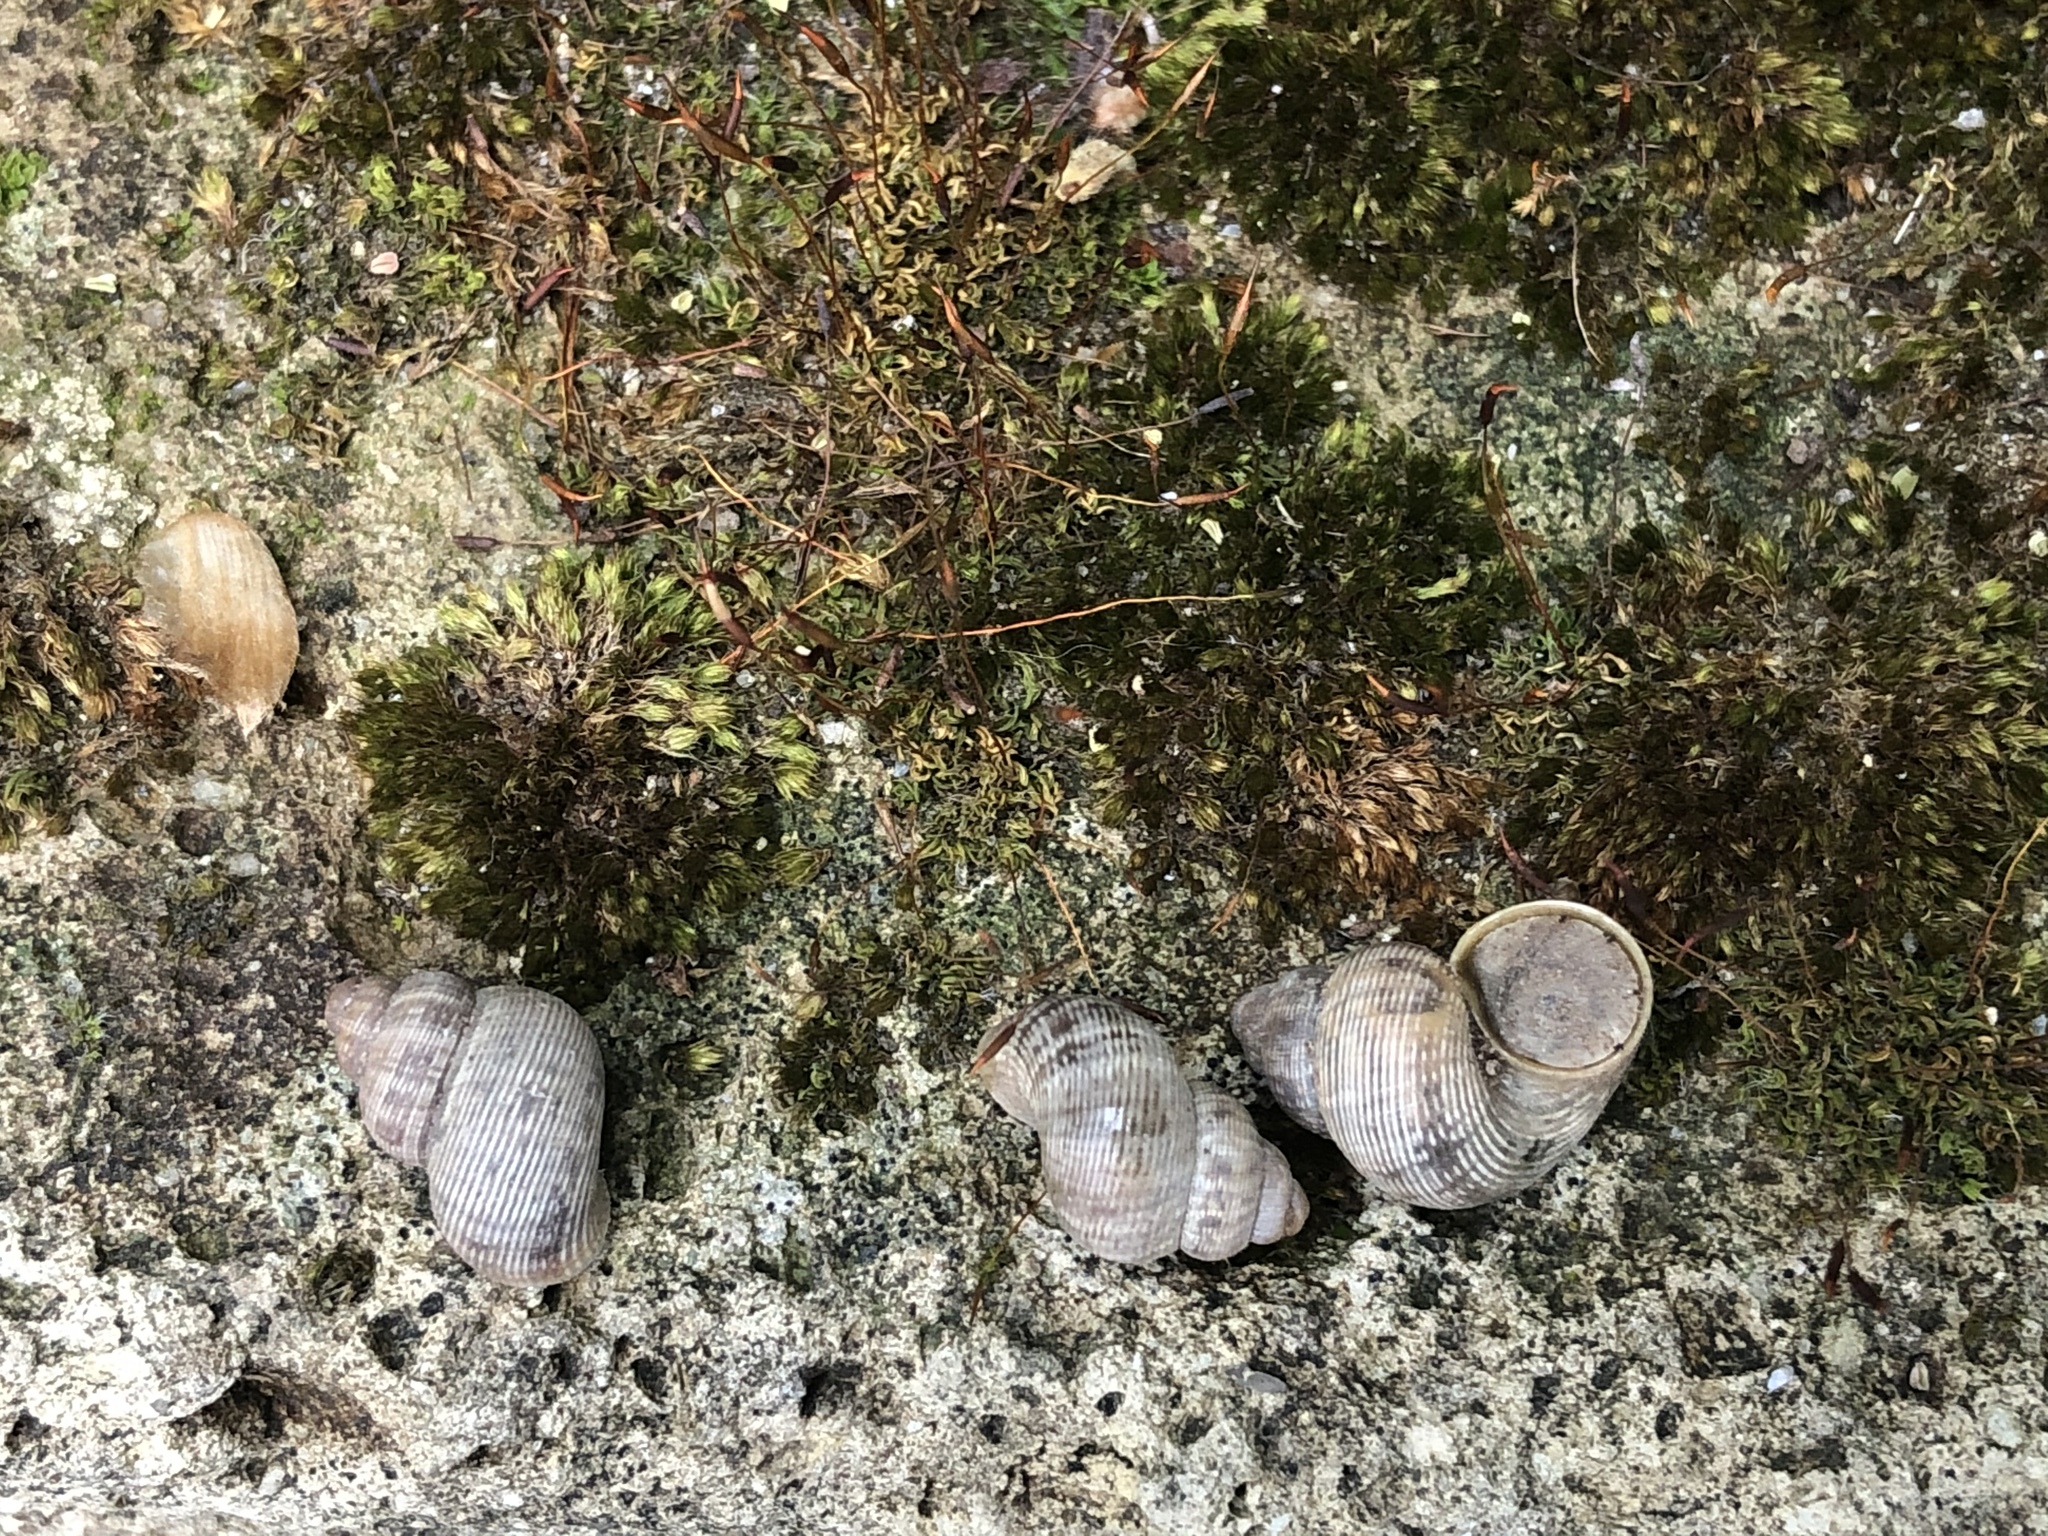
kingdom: Animalia
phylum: Mollusca
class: Gastropoda
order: Littorinimorpha
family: Pomatiidae
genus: Pomatias
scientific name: Pomatias elegans
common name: Red-mouthed snail
